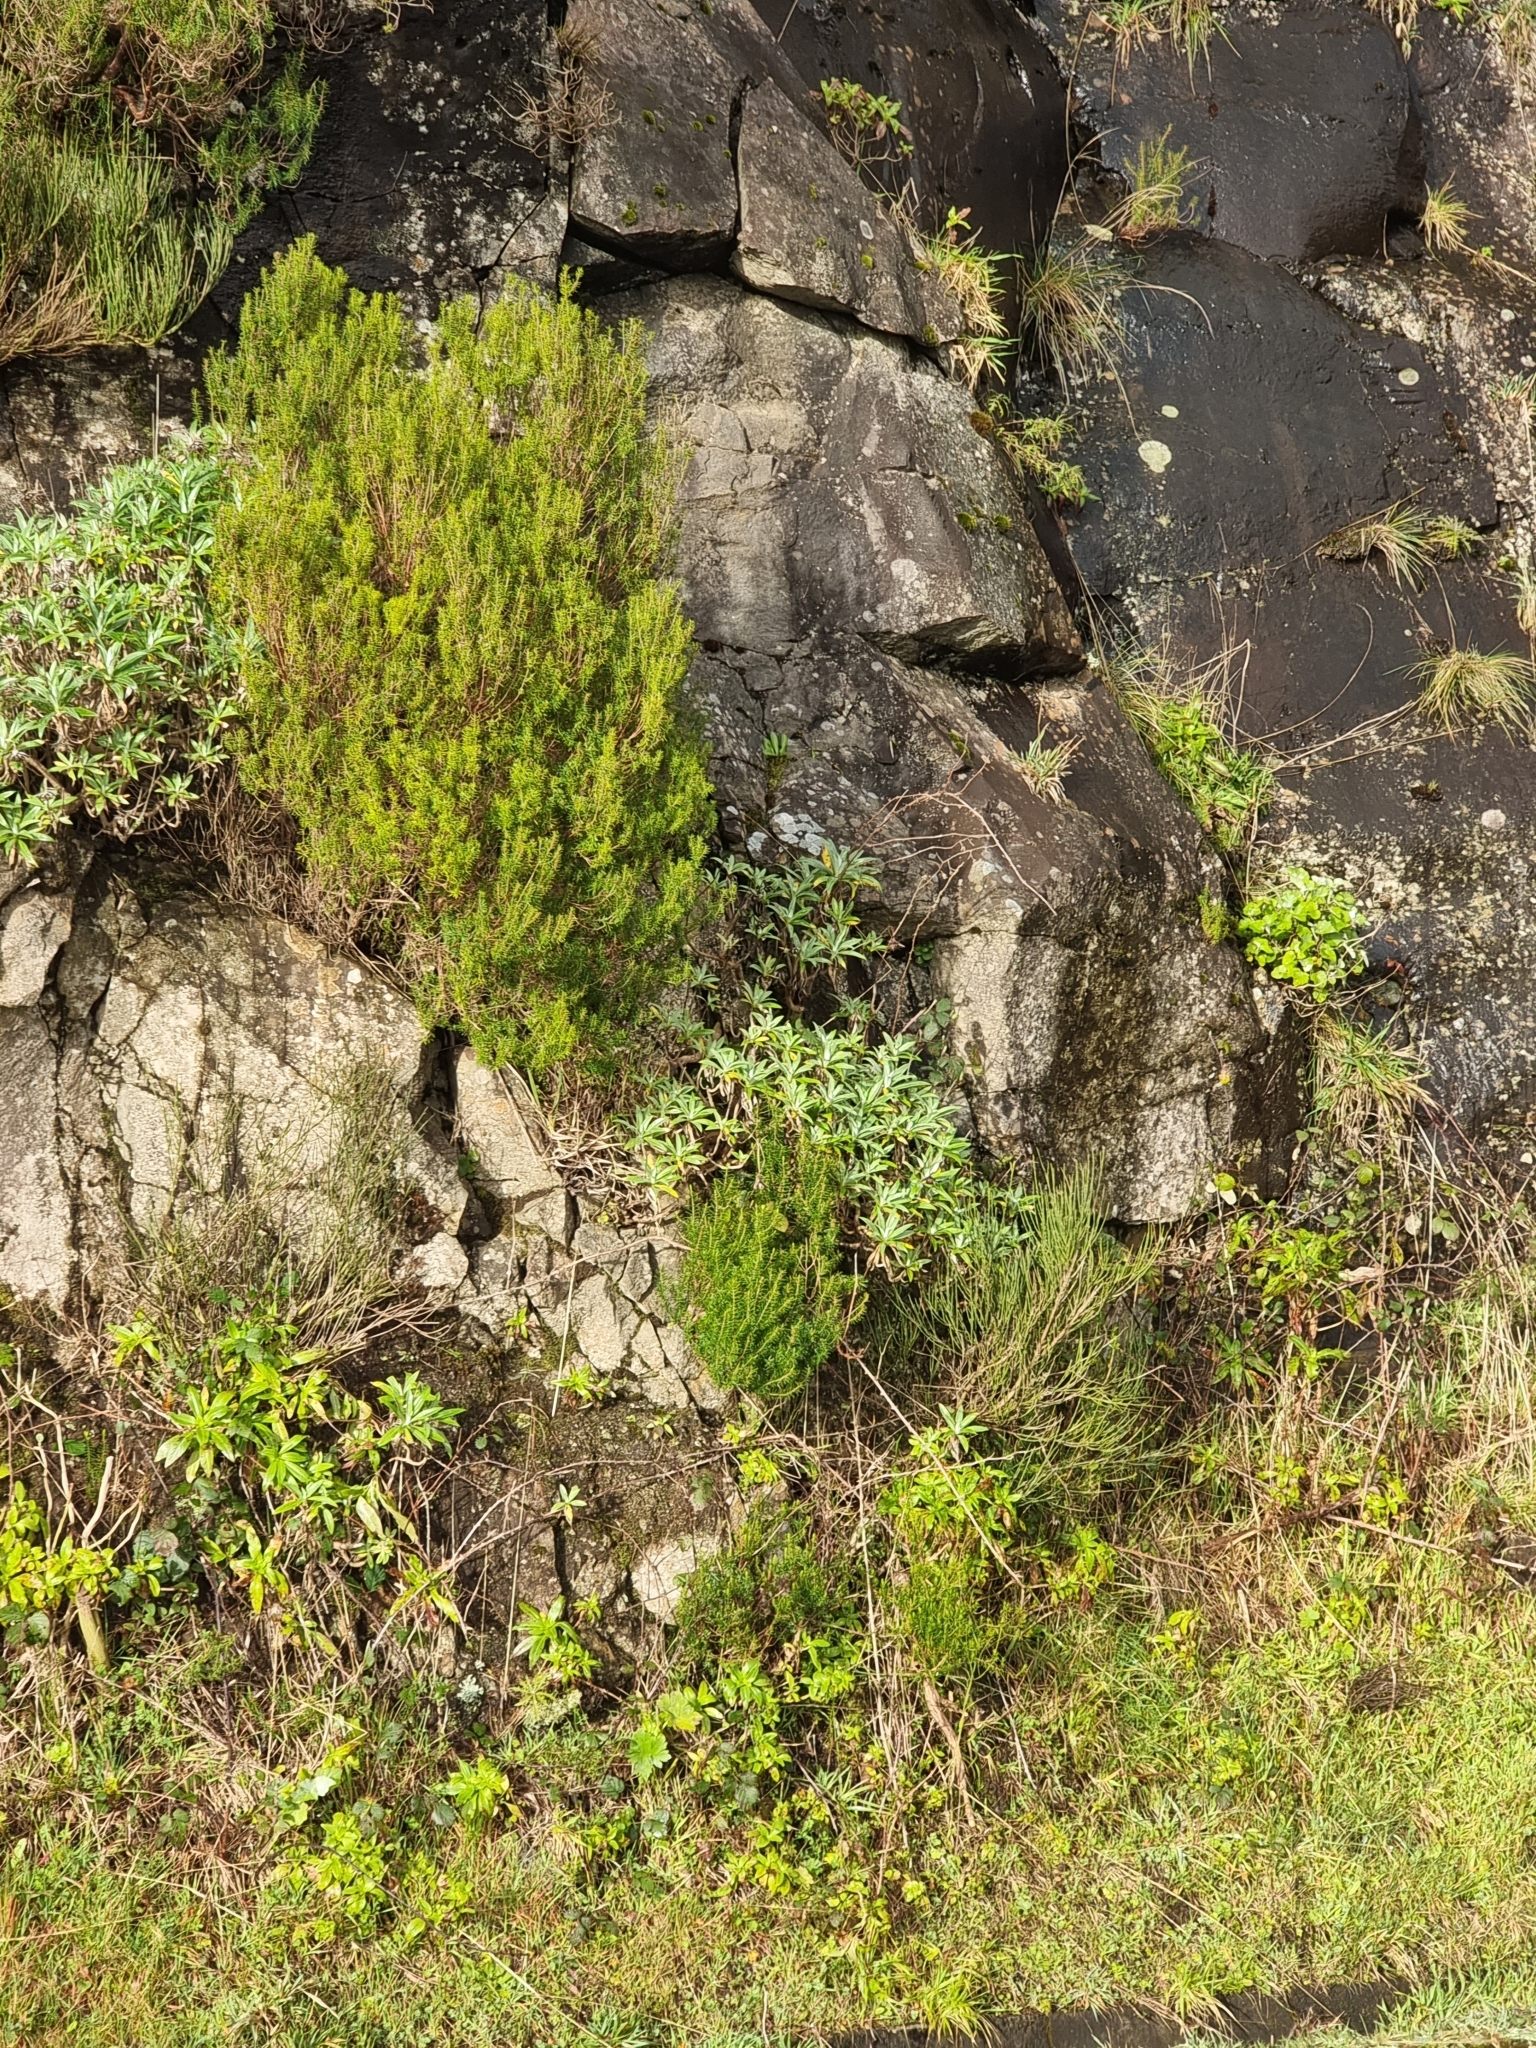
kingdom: Plantae
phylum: Tracheophyta
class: Magnoliopsida
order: Asterales
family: Asteraceae
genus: Carlina
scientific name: Carlina salicifolia
